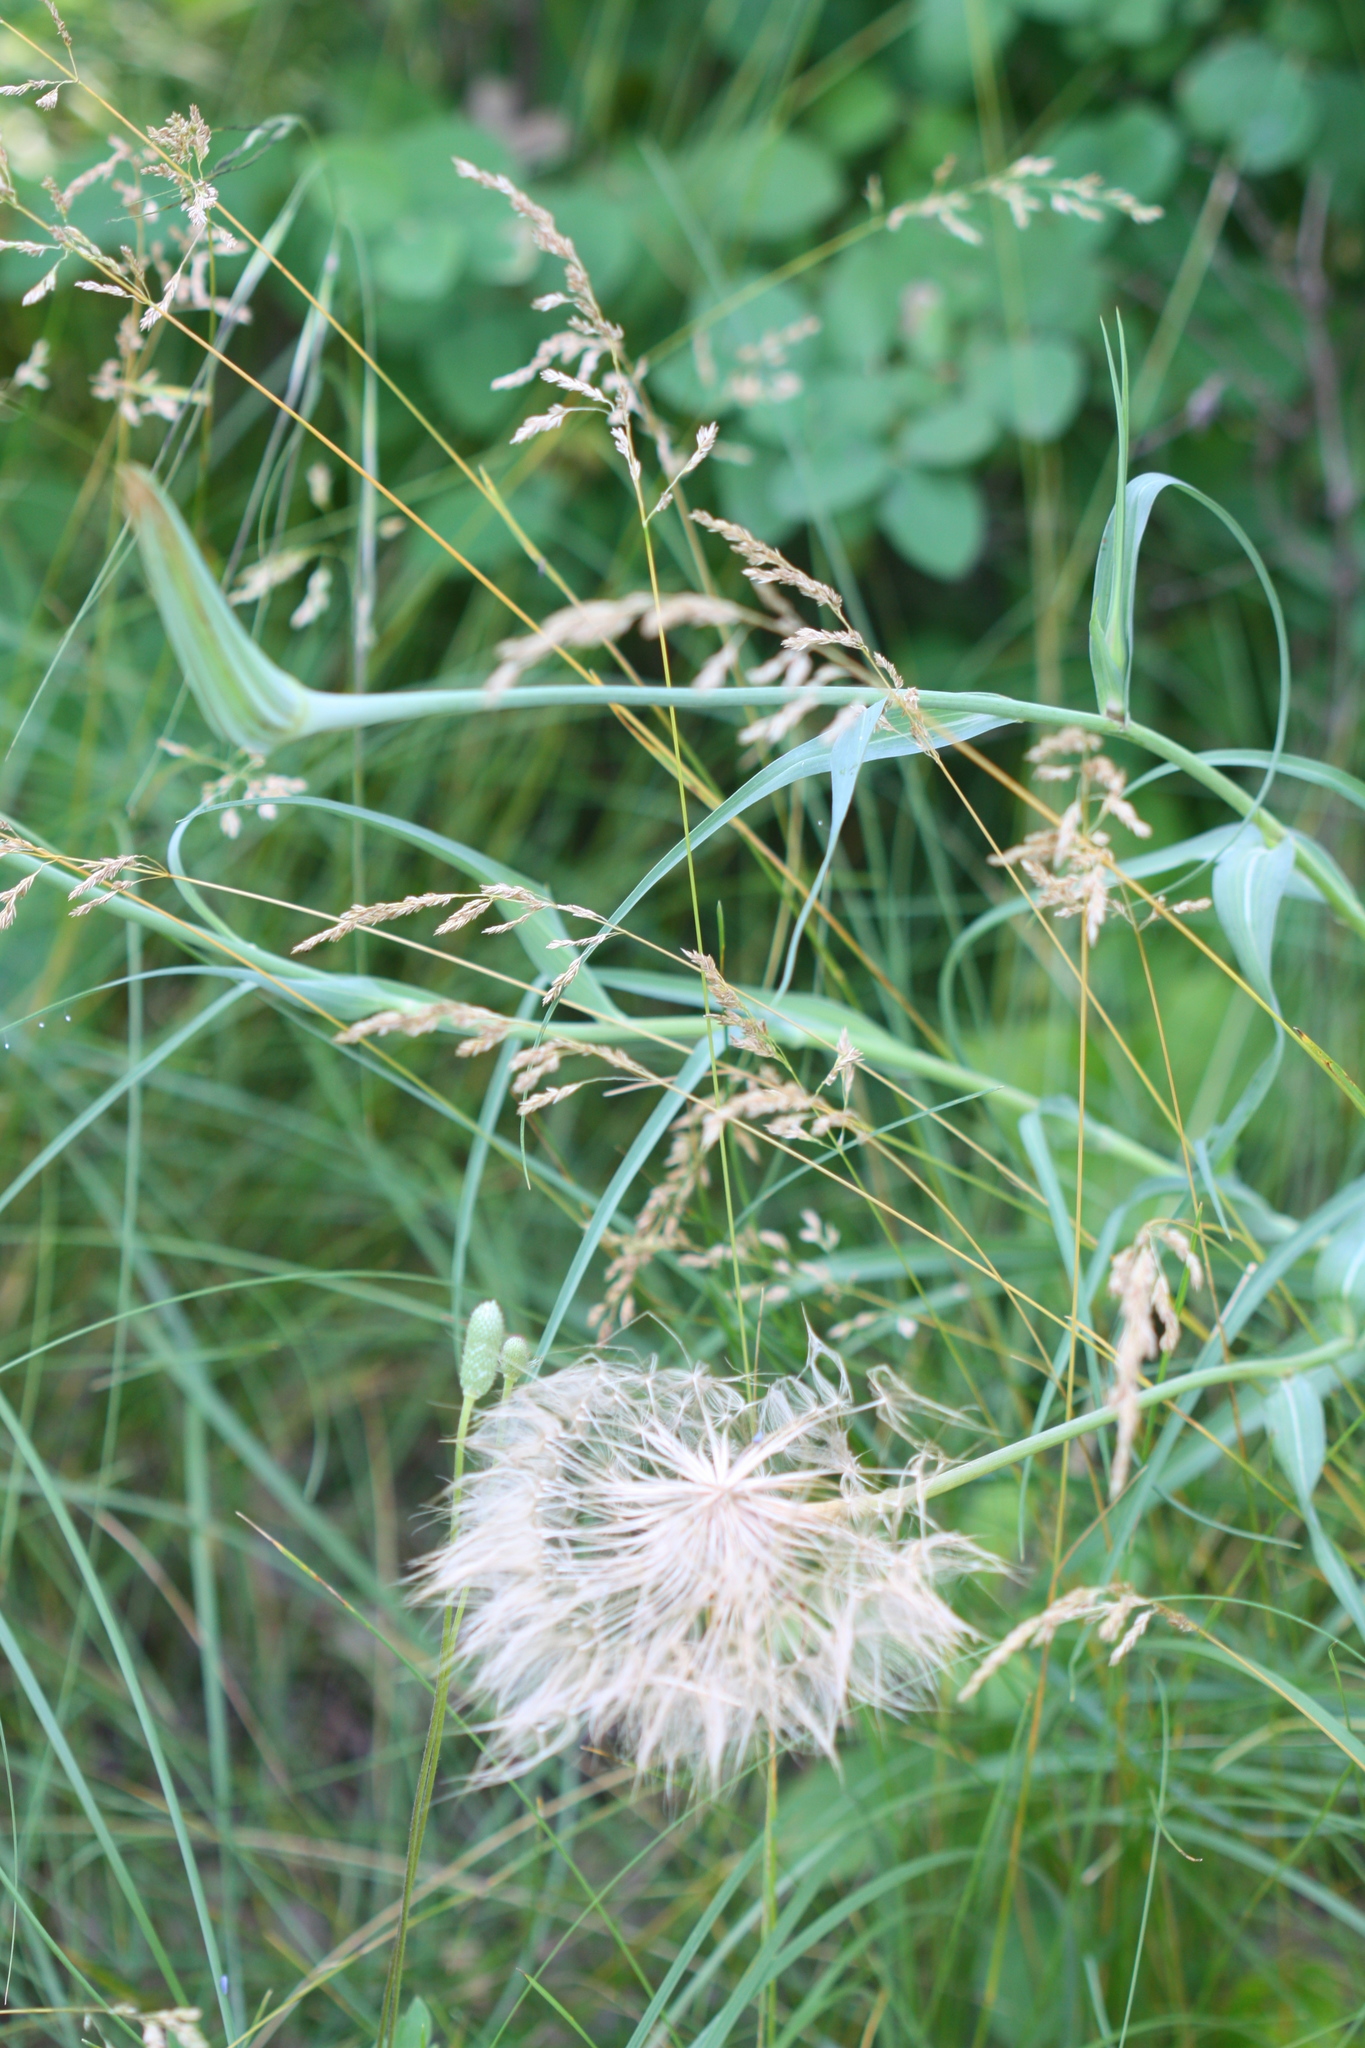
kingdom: Plantae
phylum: Tracheophyta
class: Magnoliopsida
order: Asterales
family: Asteraceae
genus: Tragopogon
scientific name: Tragopogon dubius
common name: Yellow salsify
